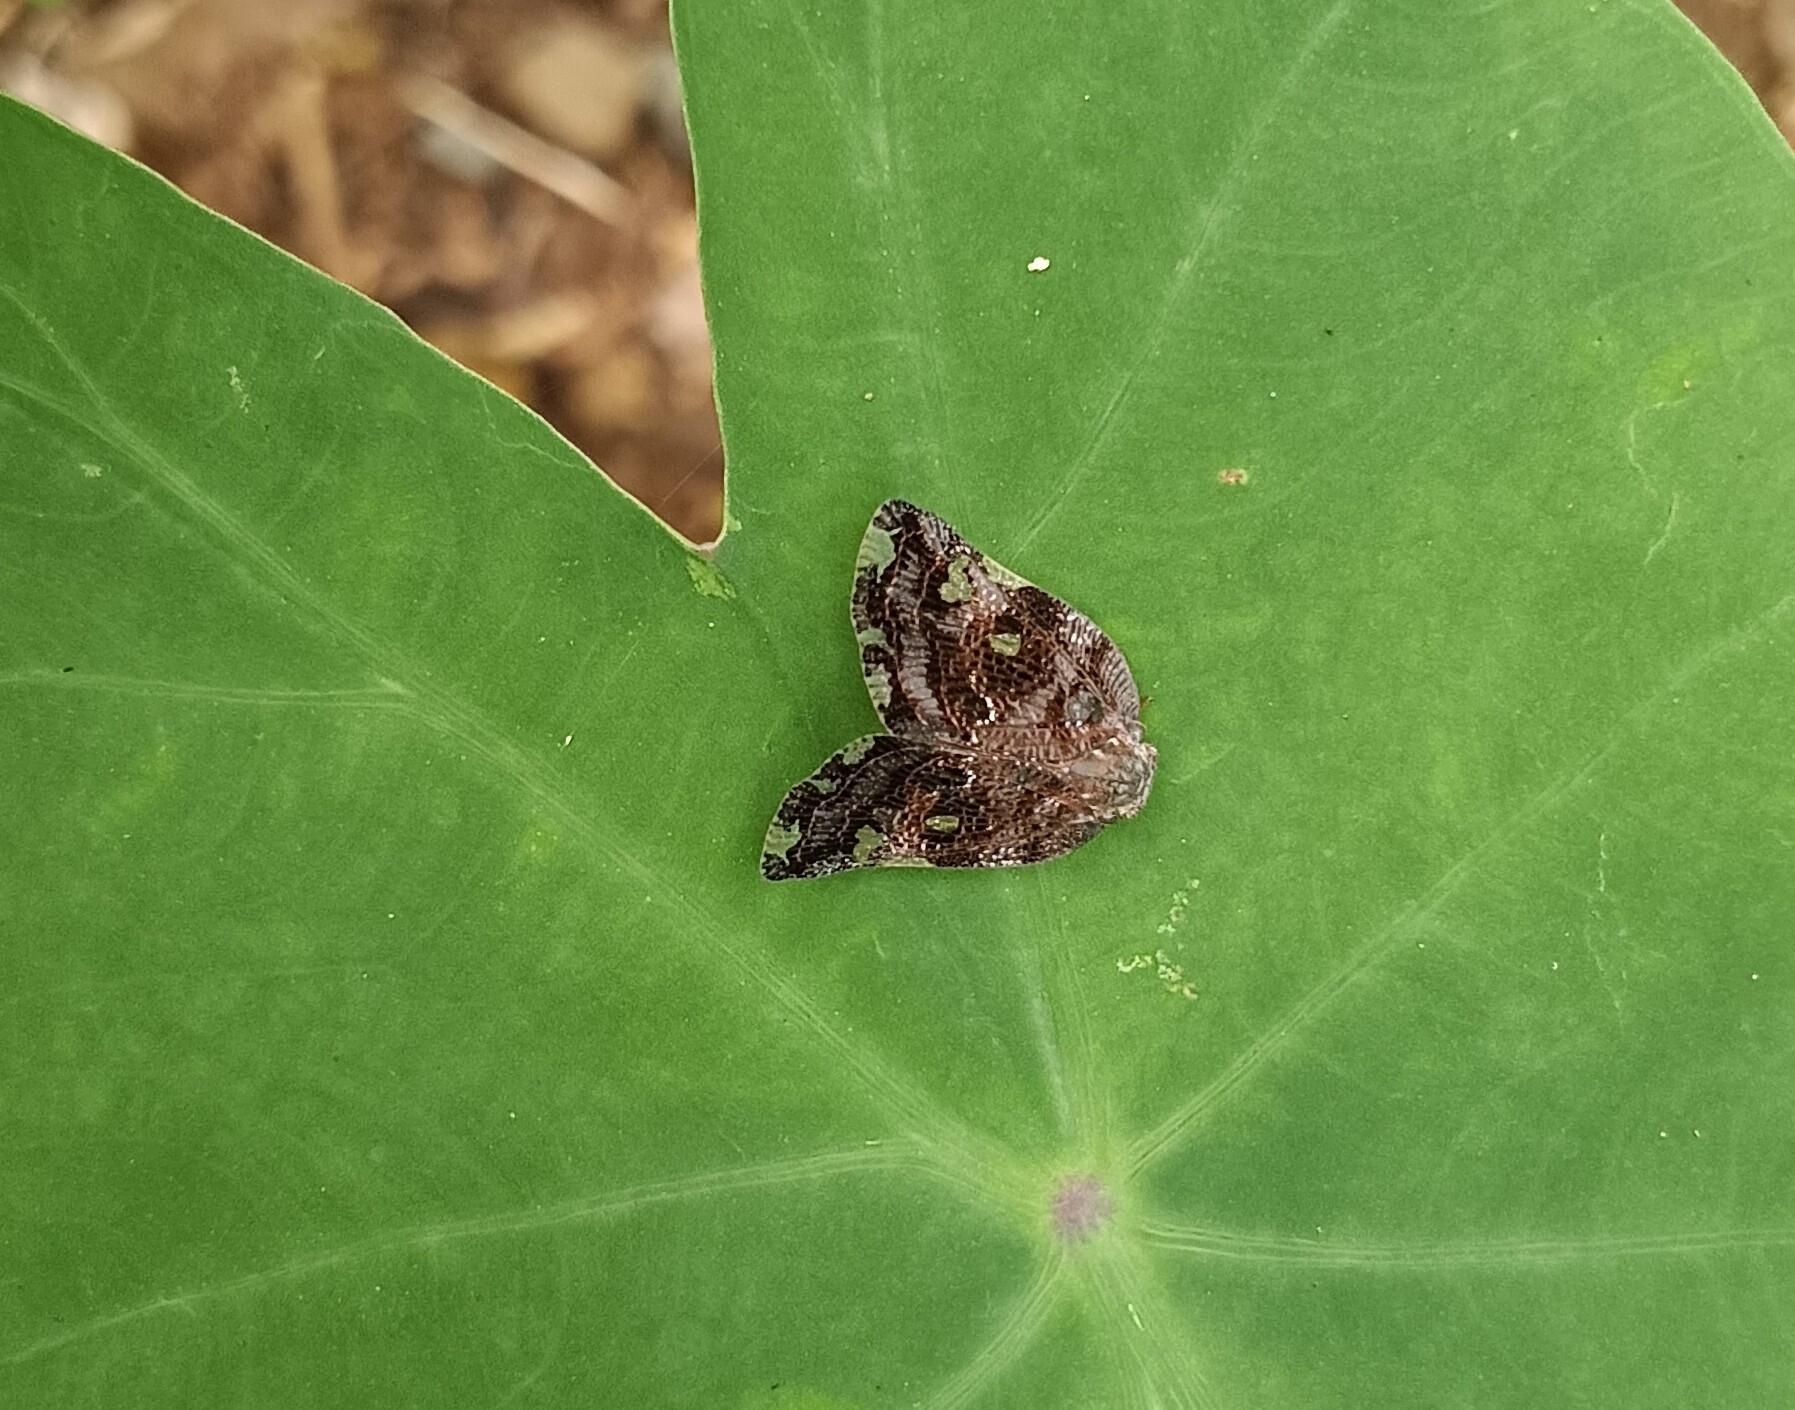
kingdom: Animalia
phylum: Arthropoda
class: Insecta
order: Hemiptera
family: Ricaniidae
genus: Ricania
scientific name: Ricania speculum
